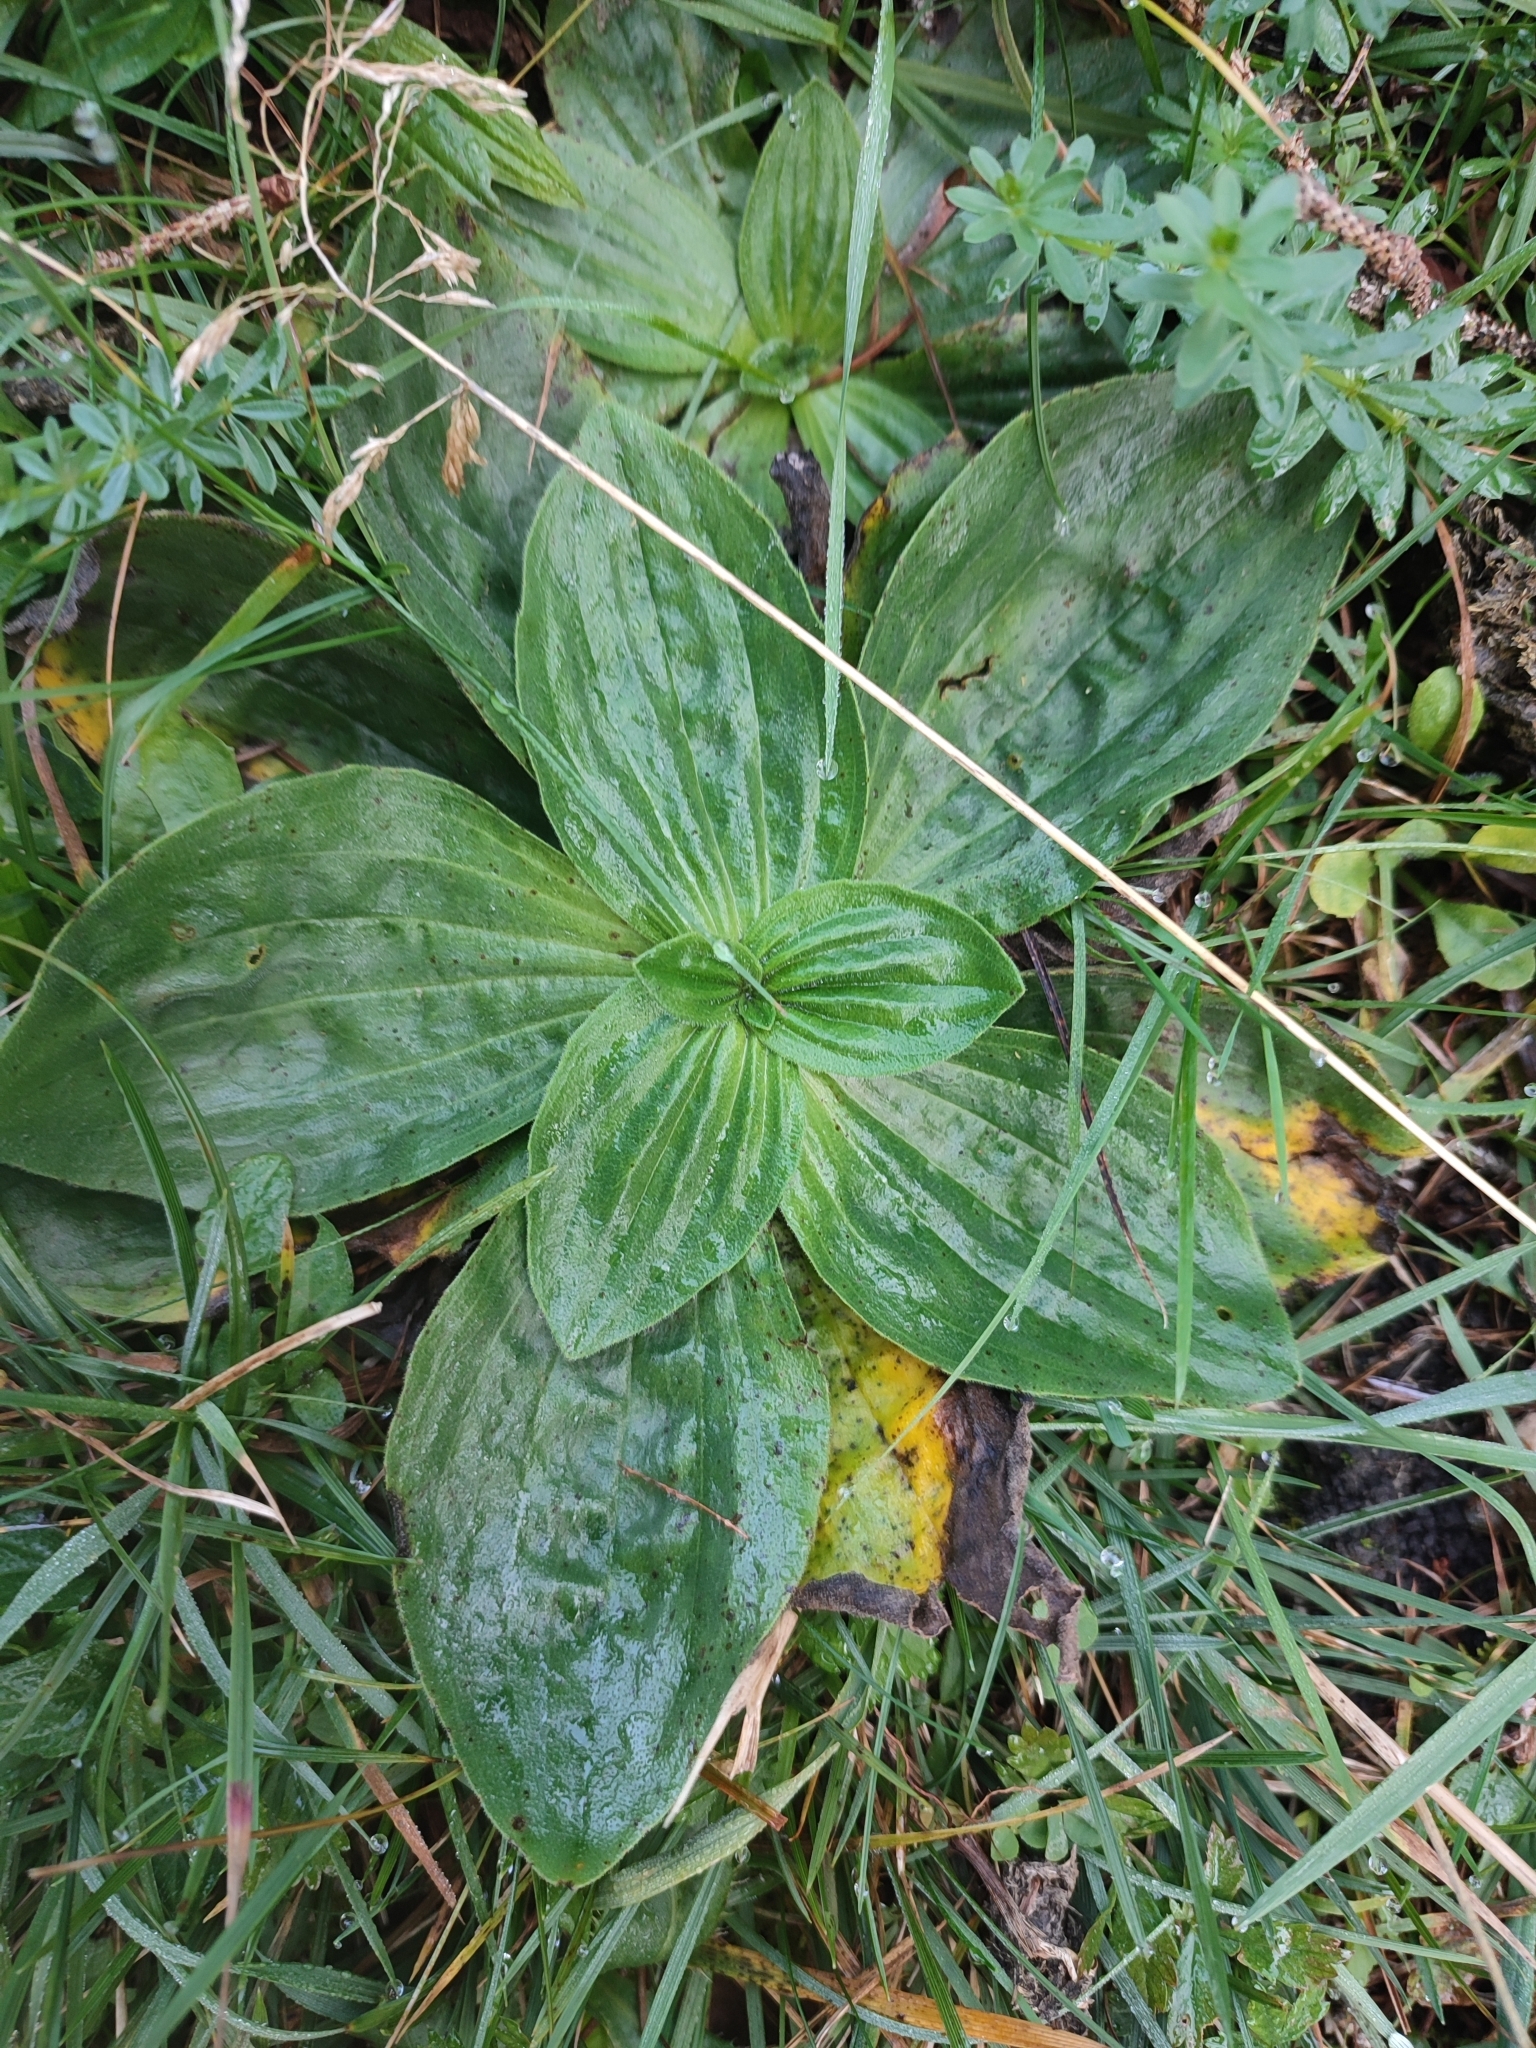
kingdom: Plantae
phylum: Tracheophyta
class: Magnoliopsida
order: Lamiales
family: Plantaginaceae
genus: Plantago
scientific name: Plantago media
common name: Hoary plantain
